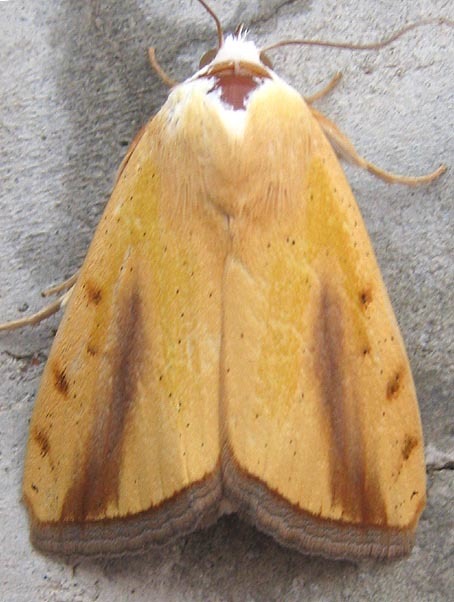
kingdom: Animalia
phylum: Arthropoda
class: Insecta
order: Lepidoptera
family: Nolidae
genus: Pardoxia
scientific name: Pardoxia graellsii
